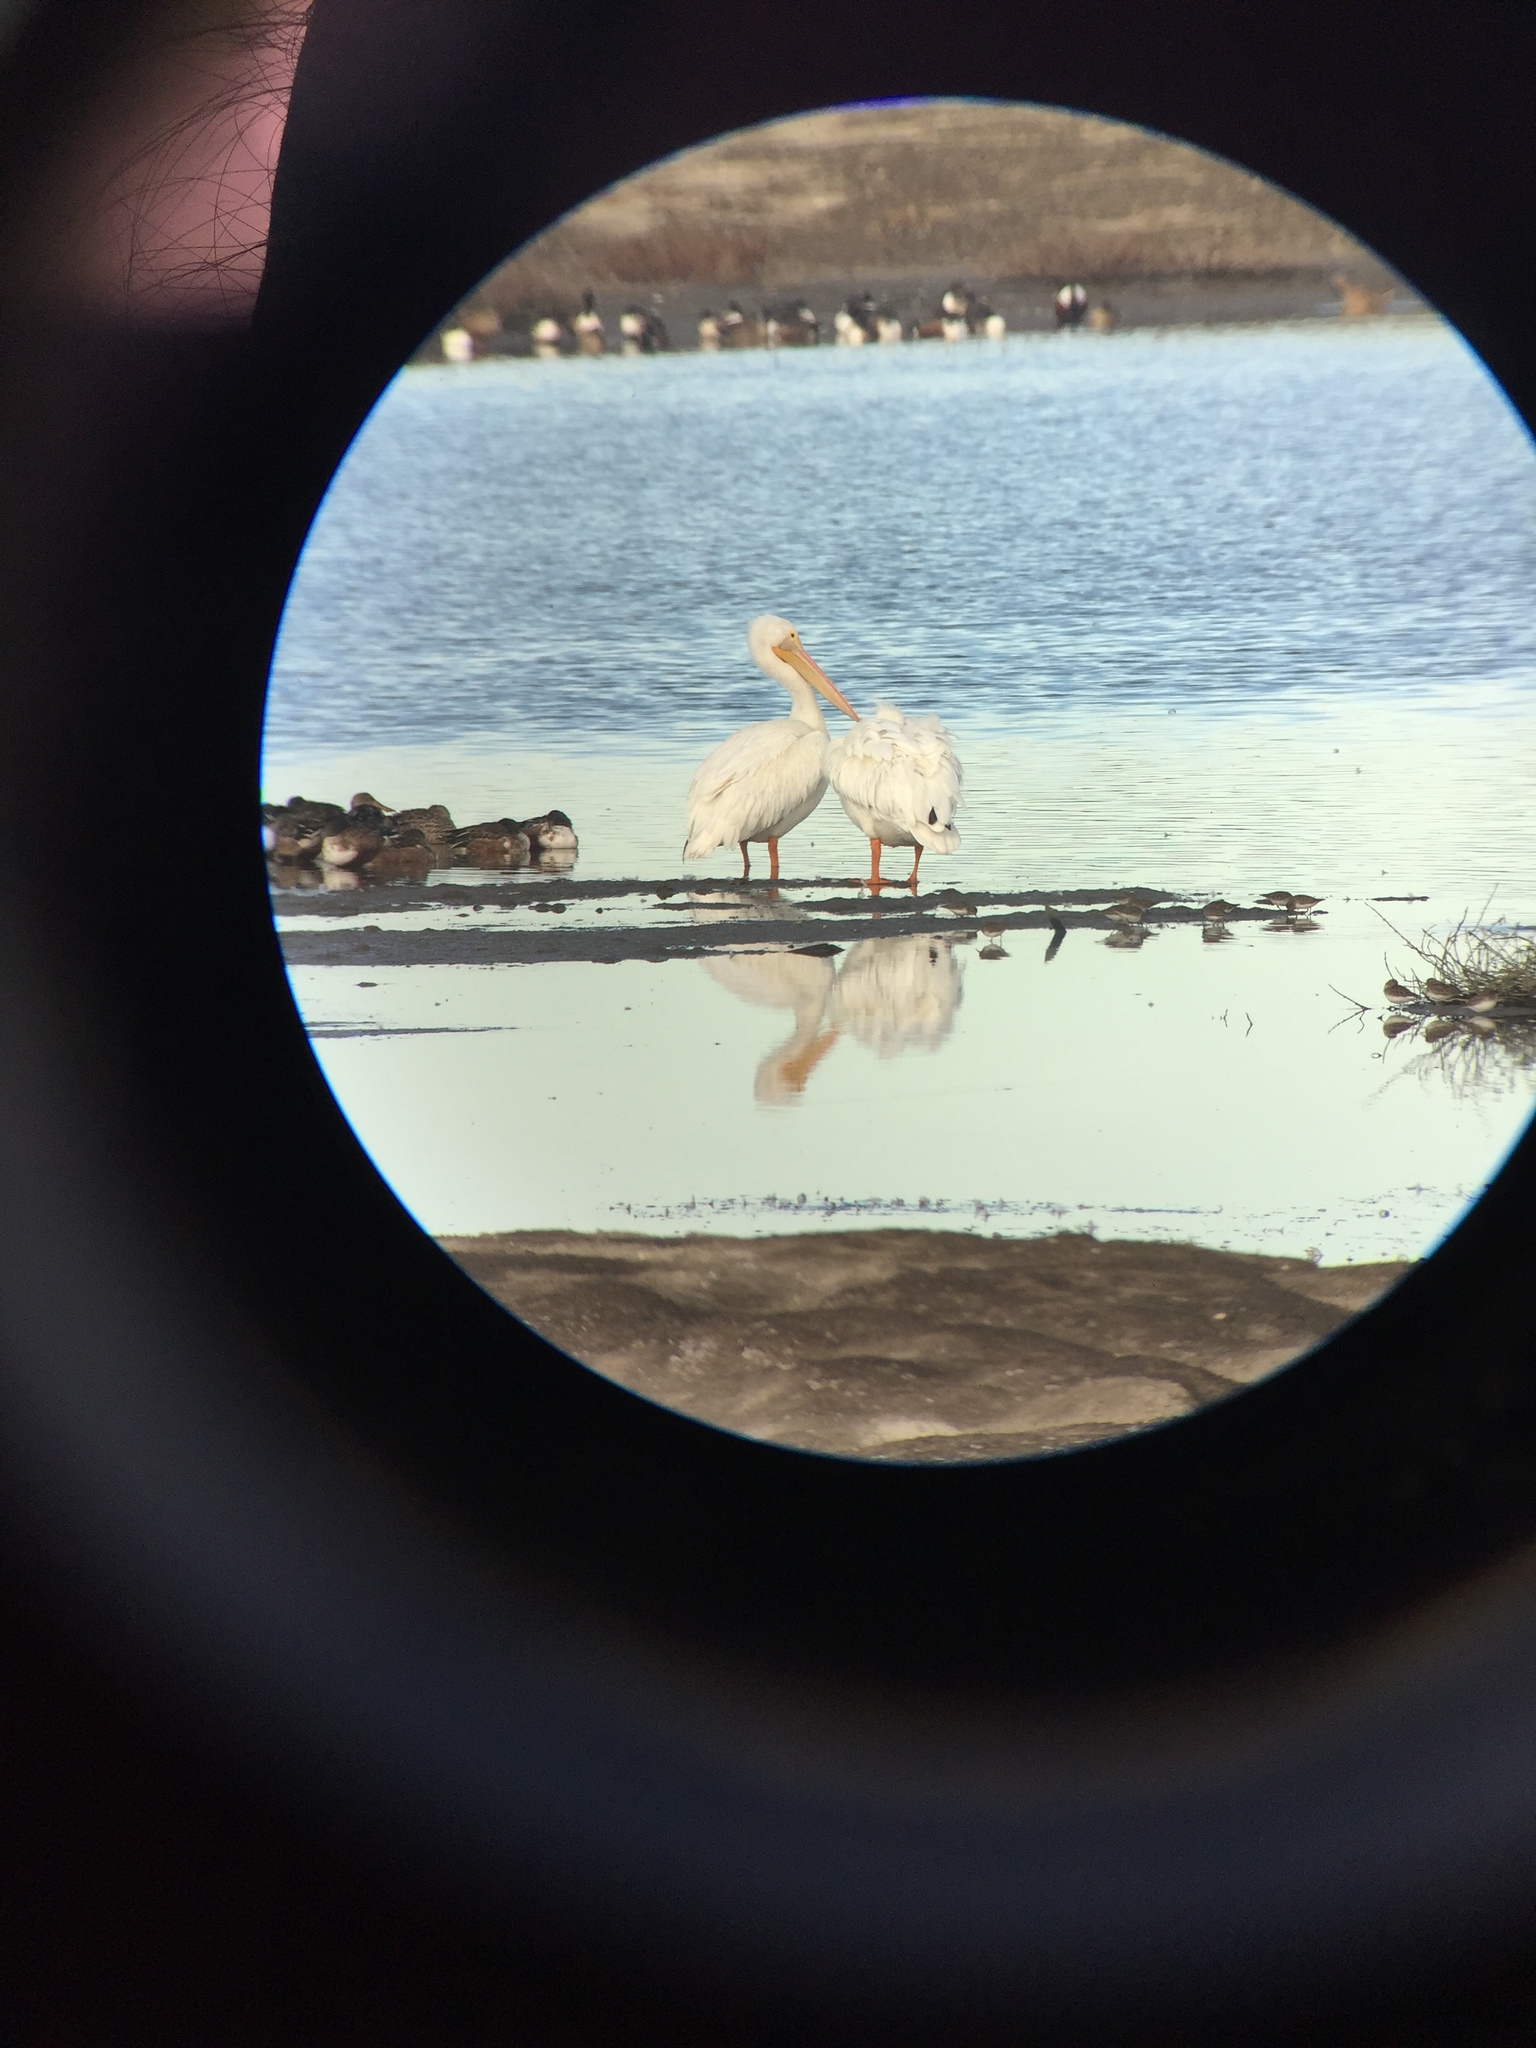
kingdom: Animalia
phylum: Chordata
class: Aves
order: Pelecaniformes
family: Pelecanidae
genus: Pelecanus
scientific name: Pelecanus erythrorhynchos
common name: American white pelican
